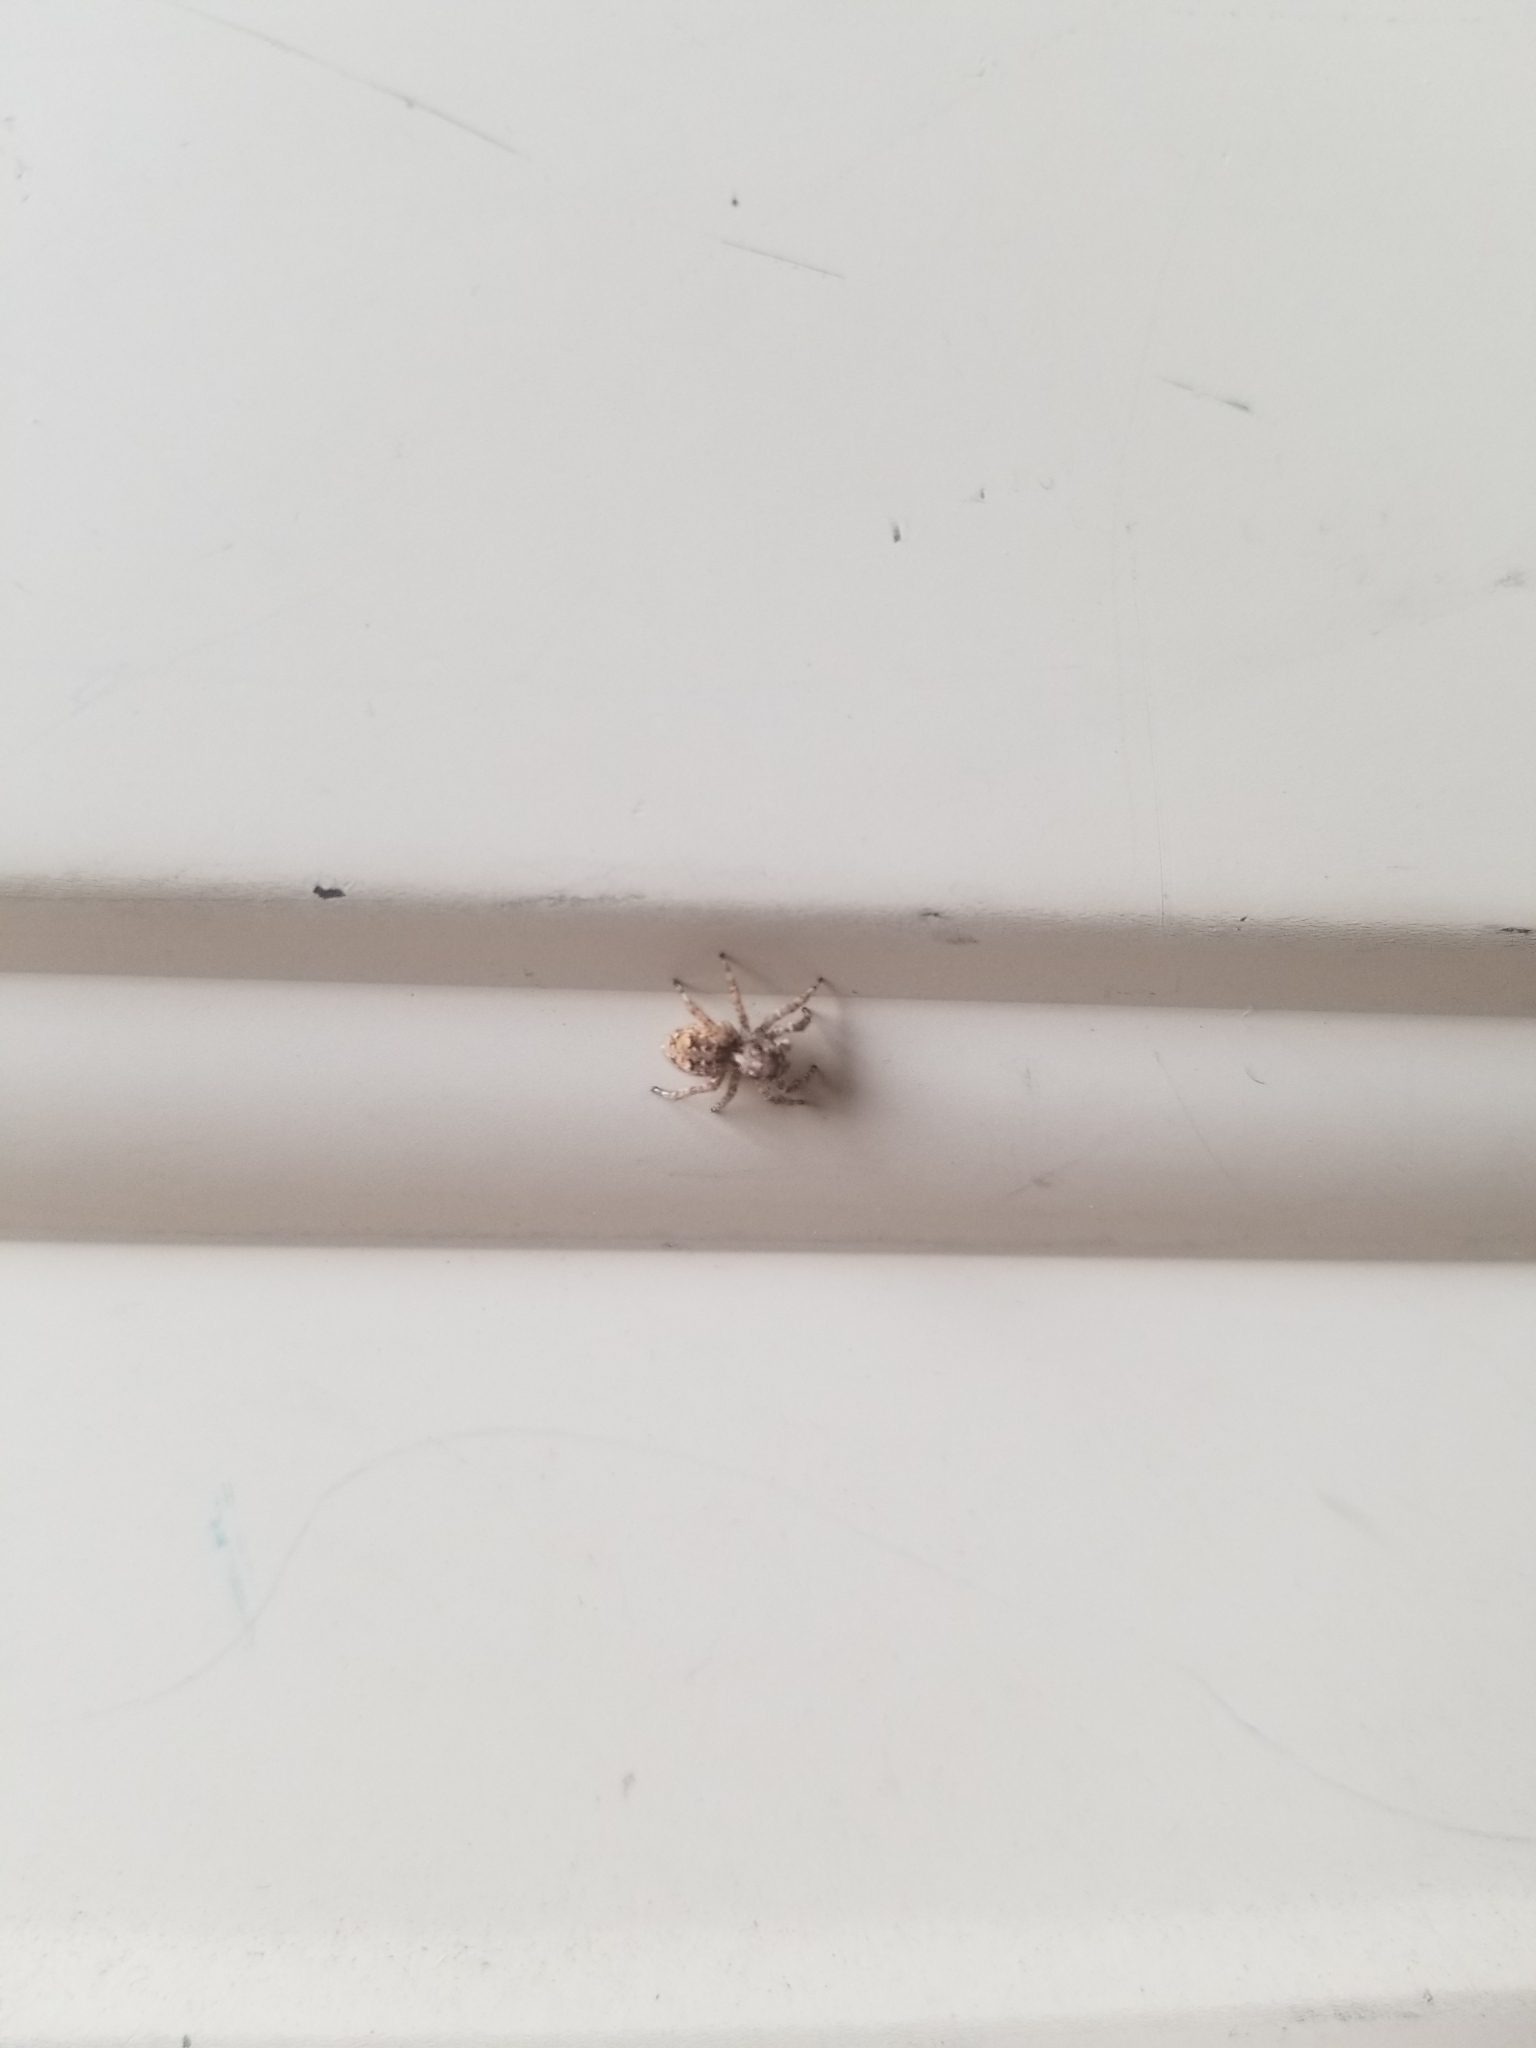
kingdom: Animalia
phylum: Arthropoda
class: Arachnida
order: Araneae
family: Salticidae
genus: Attulus
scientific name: Attulus fasciger
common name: Asiatic wall jumping spider
